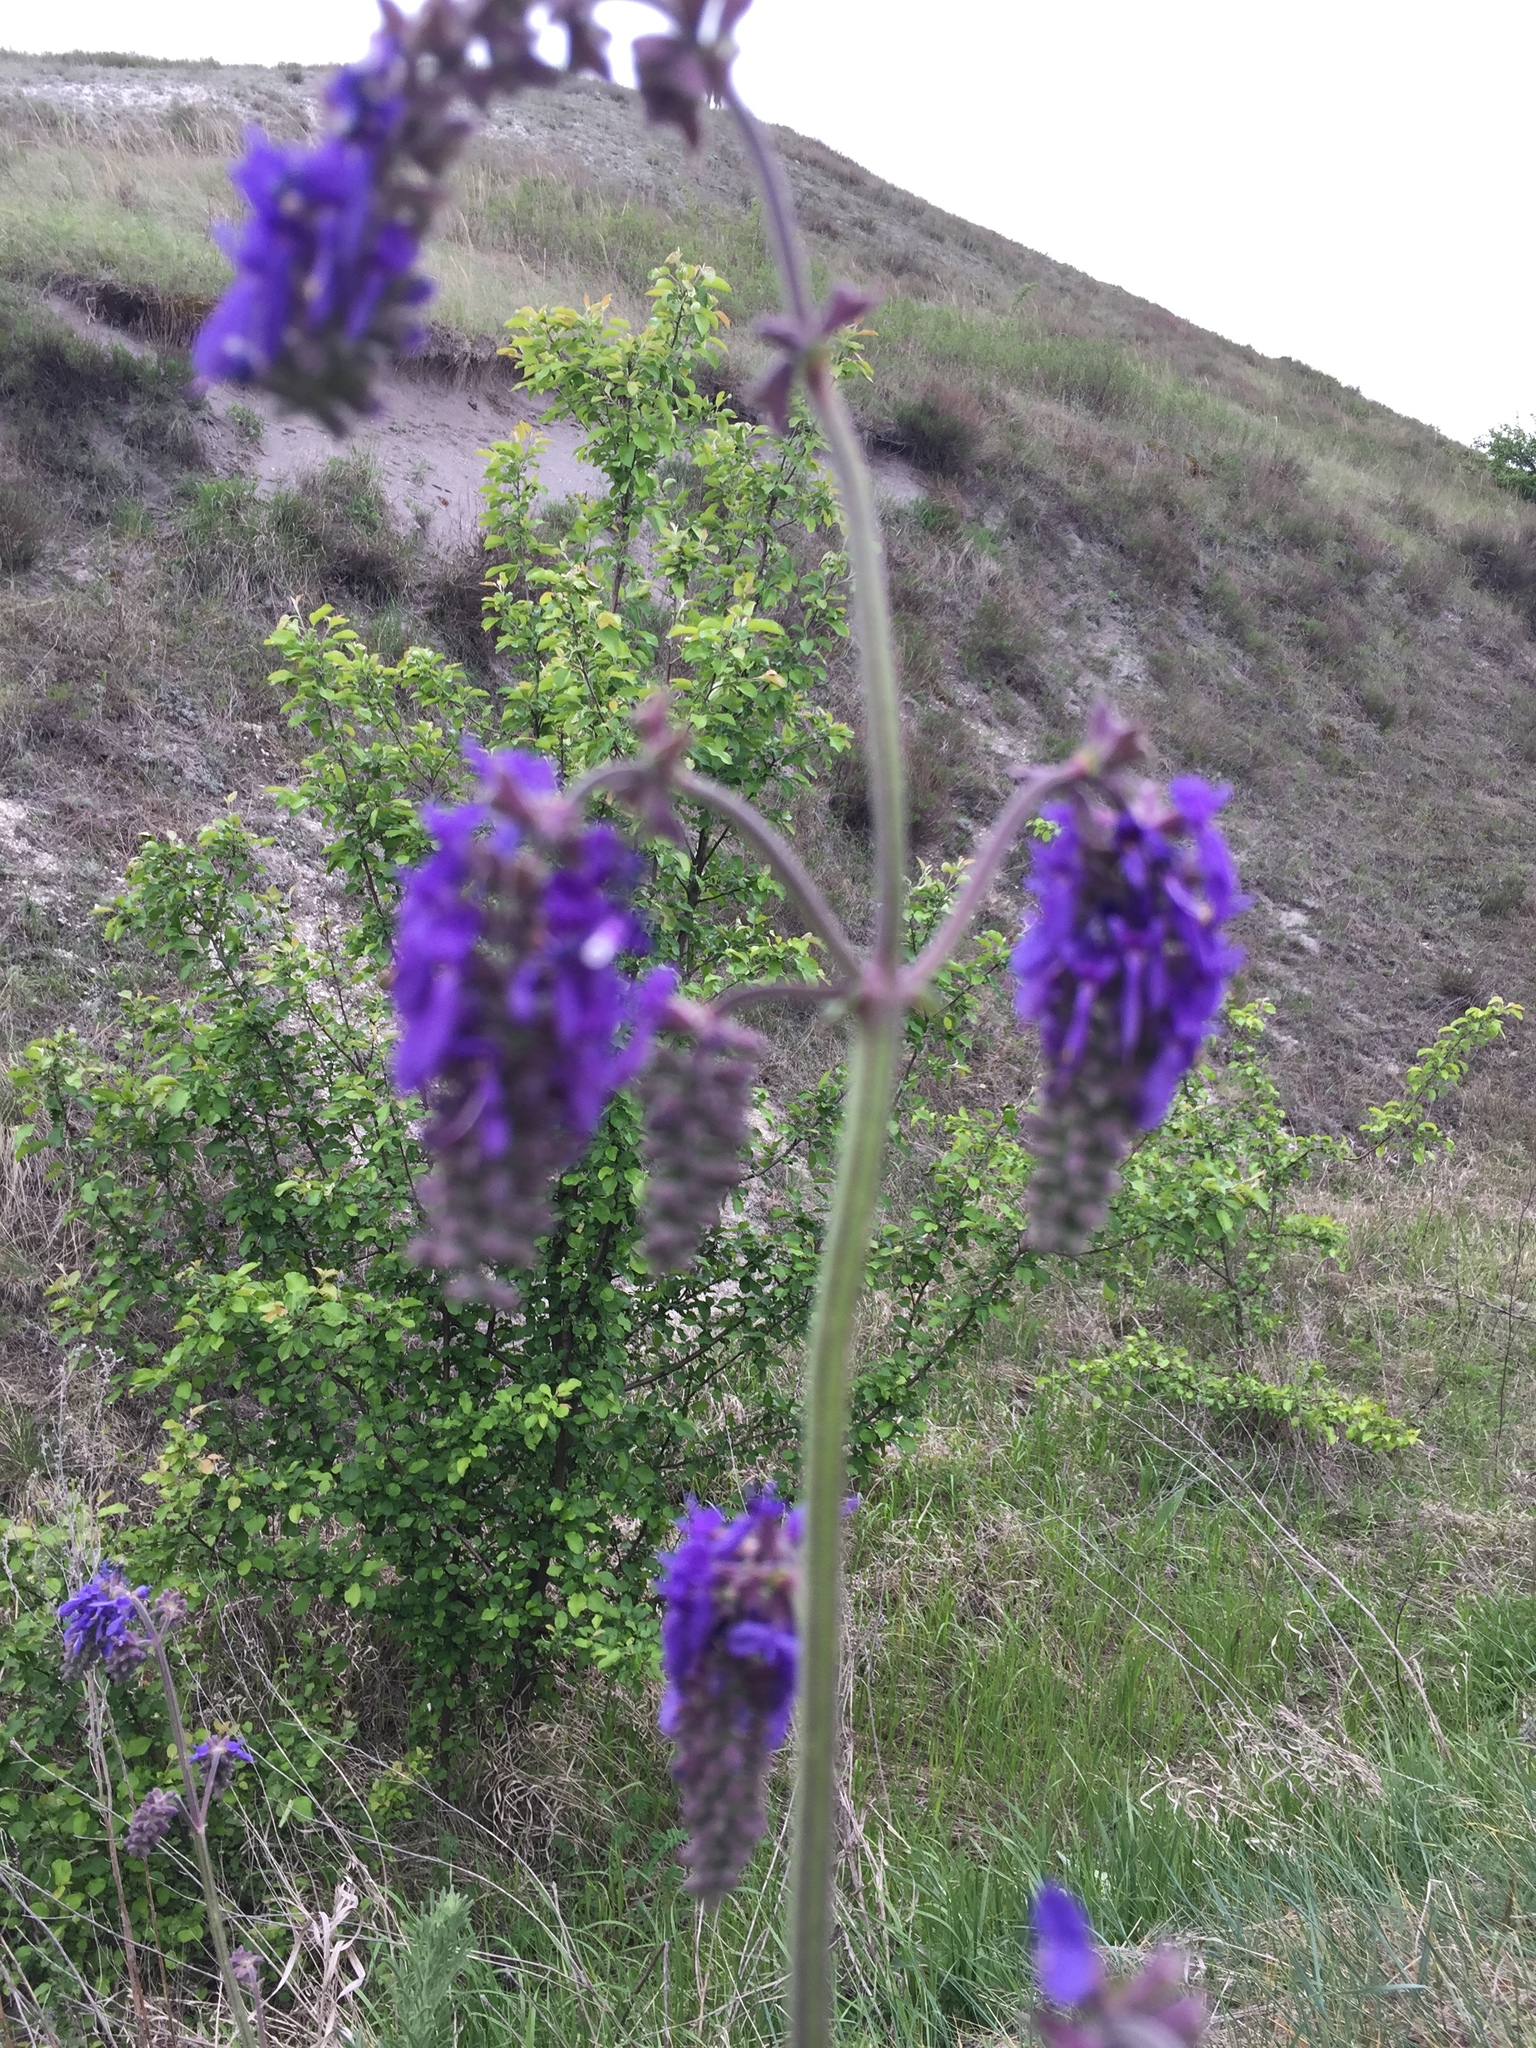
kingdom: Plantae
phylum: Tracheophyta
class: Magnoliopsida
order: Lamiales
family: Lamiaceae
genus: Salvia
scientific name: Salvia nutans
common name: Nodding sage
